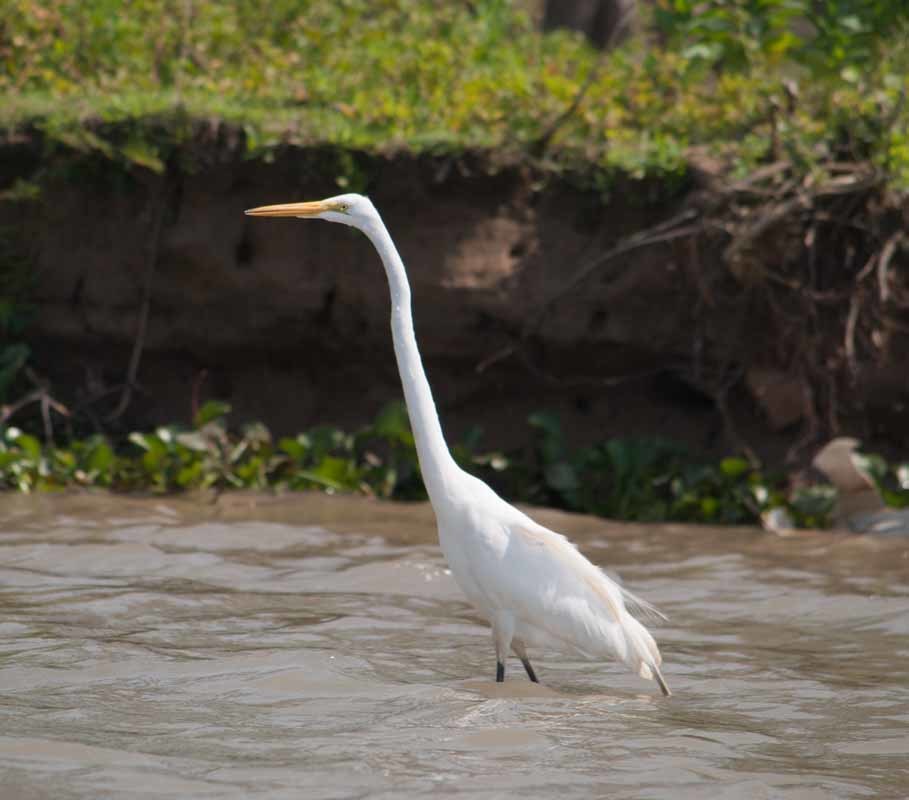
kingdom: Animalia
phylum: Chordata
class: Aves
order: Pelecaniformes
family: Ardeidae
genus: Ardea
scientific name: Ardea alba
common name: Great egret
